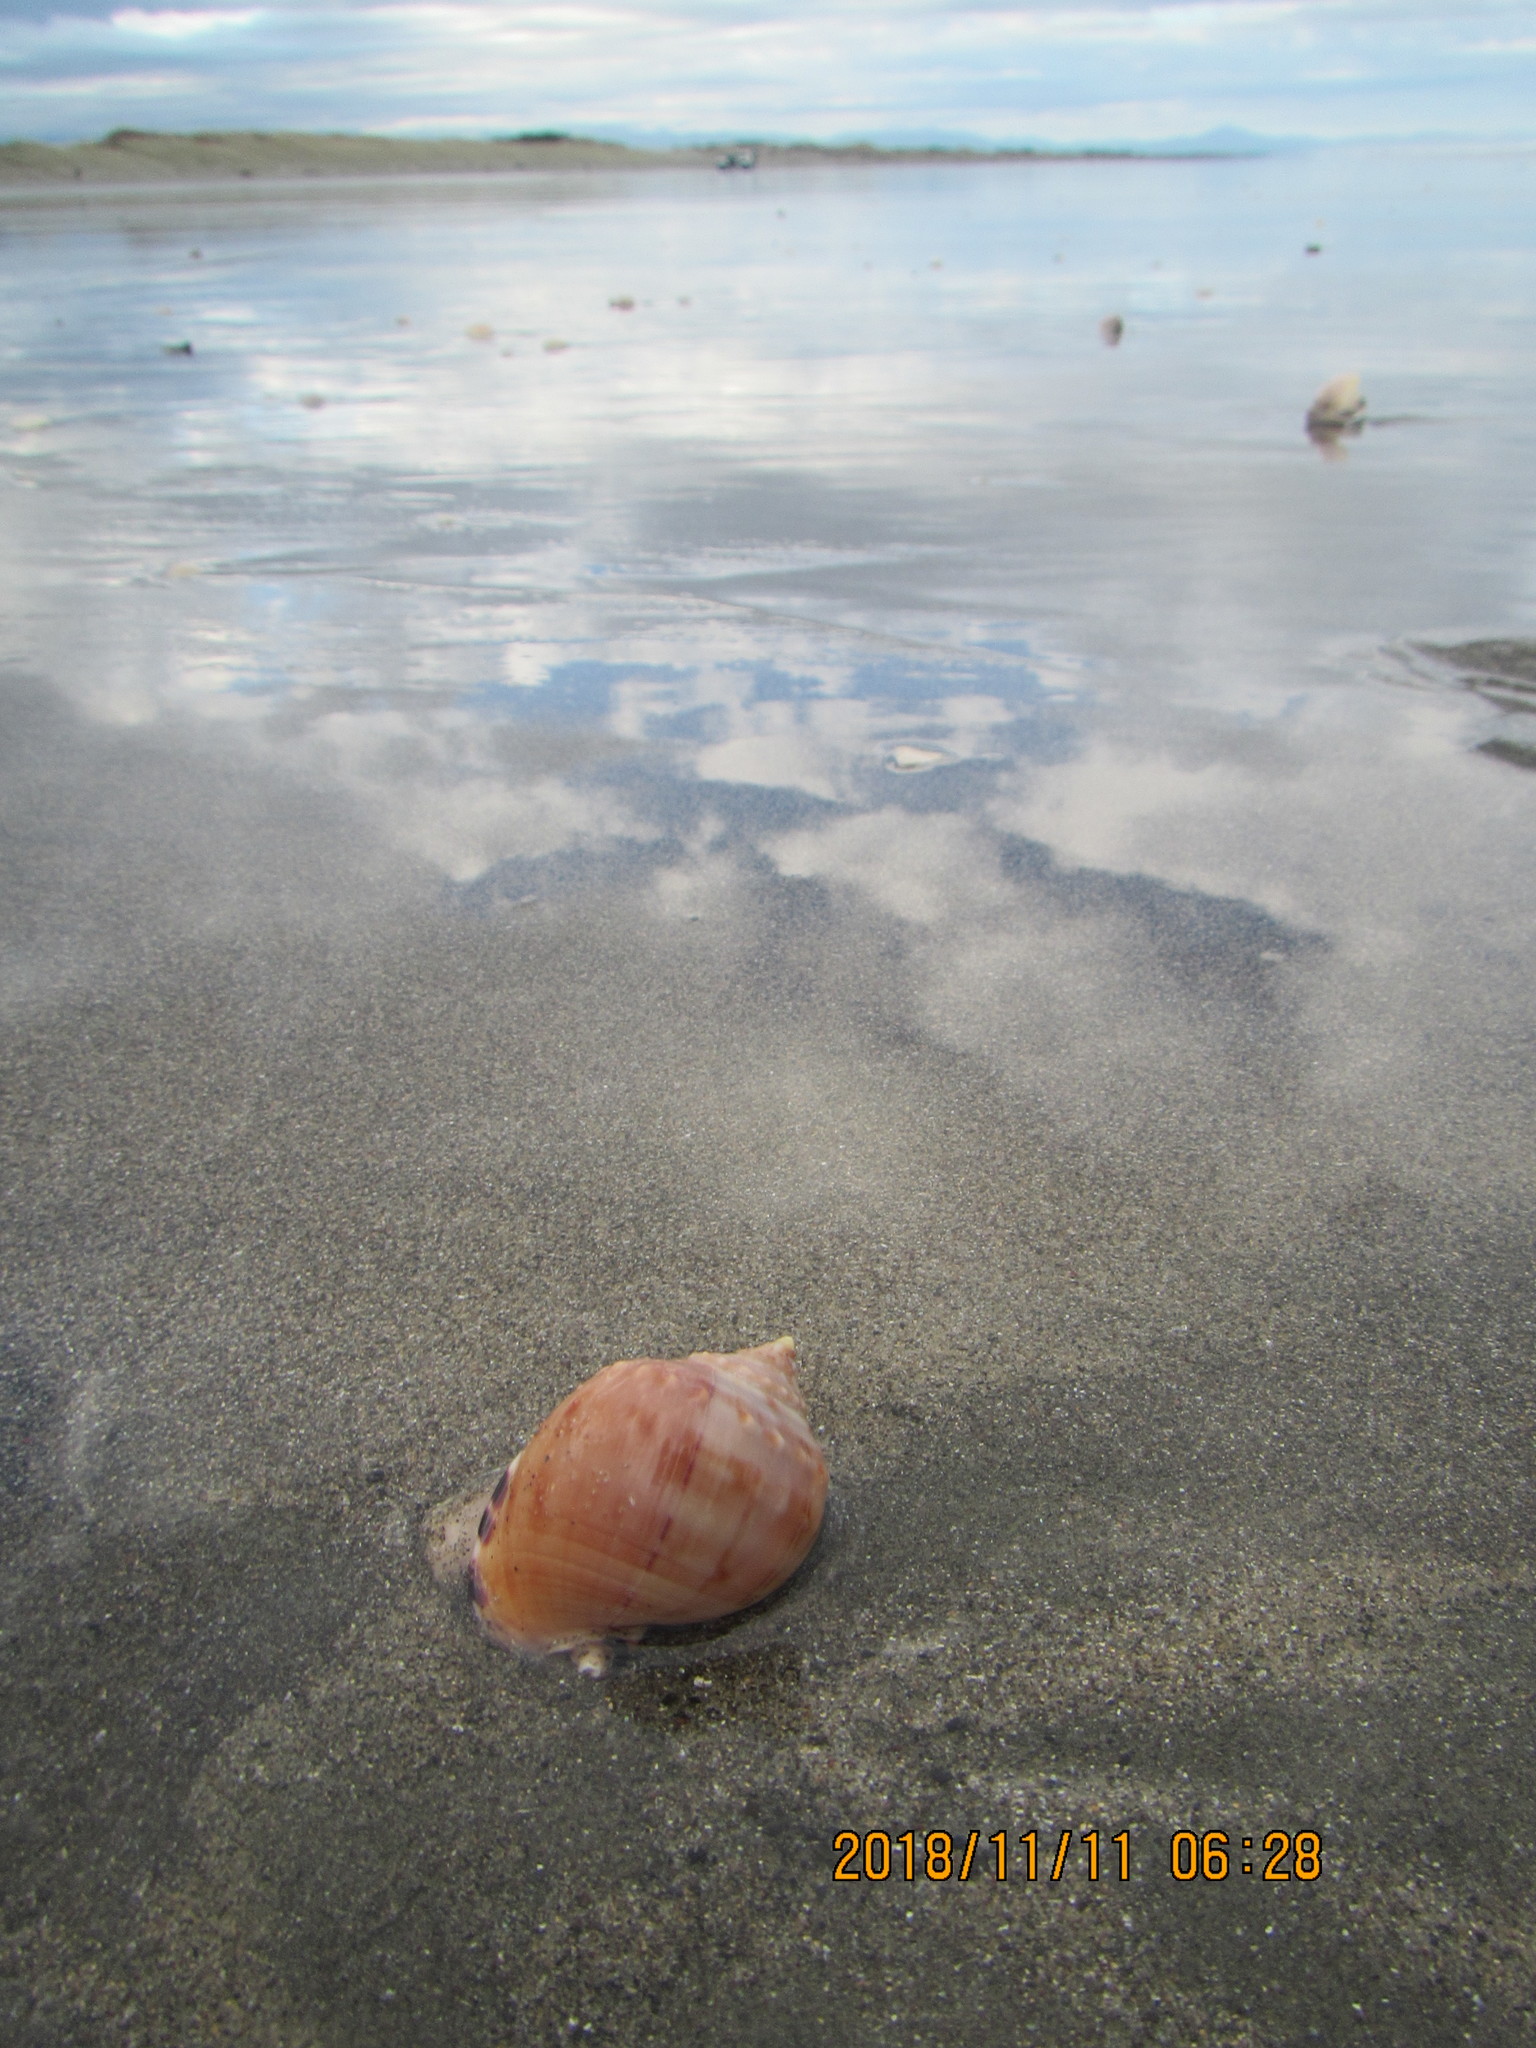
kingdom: Animalia
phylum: Mollusca
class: Gastropoda
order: Littorinimorpha
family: Cassidae
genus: Semicassis
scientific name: Semicassis pyrum
